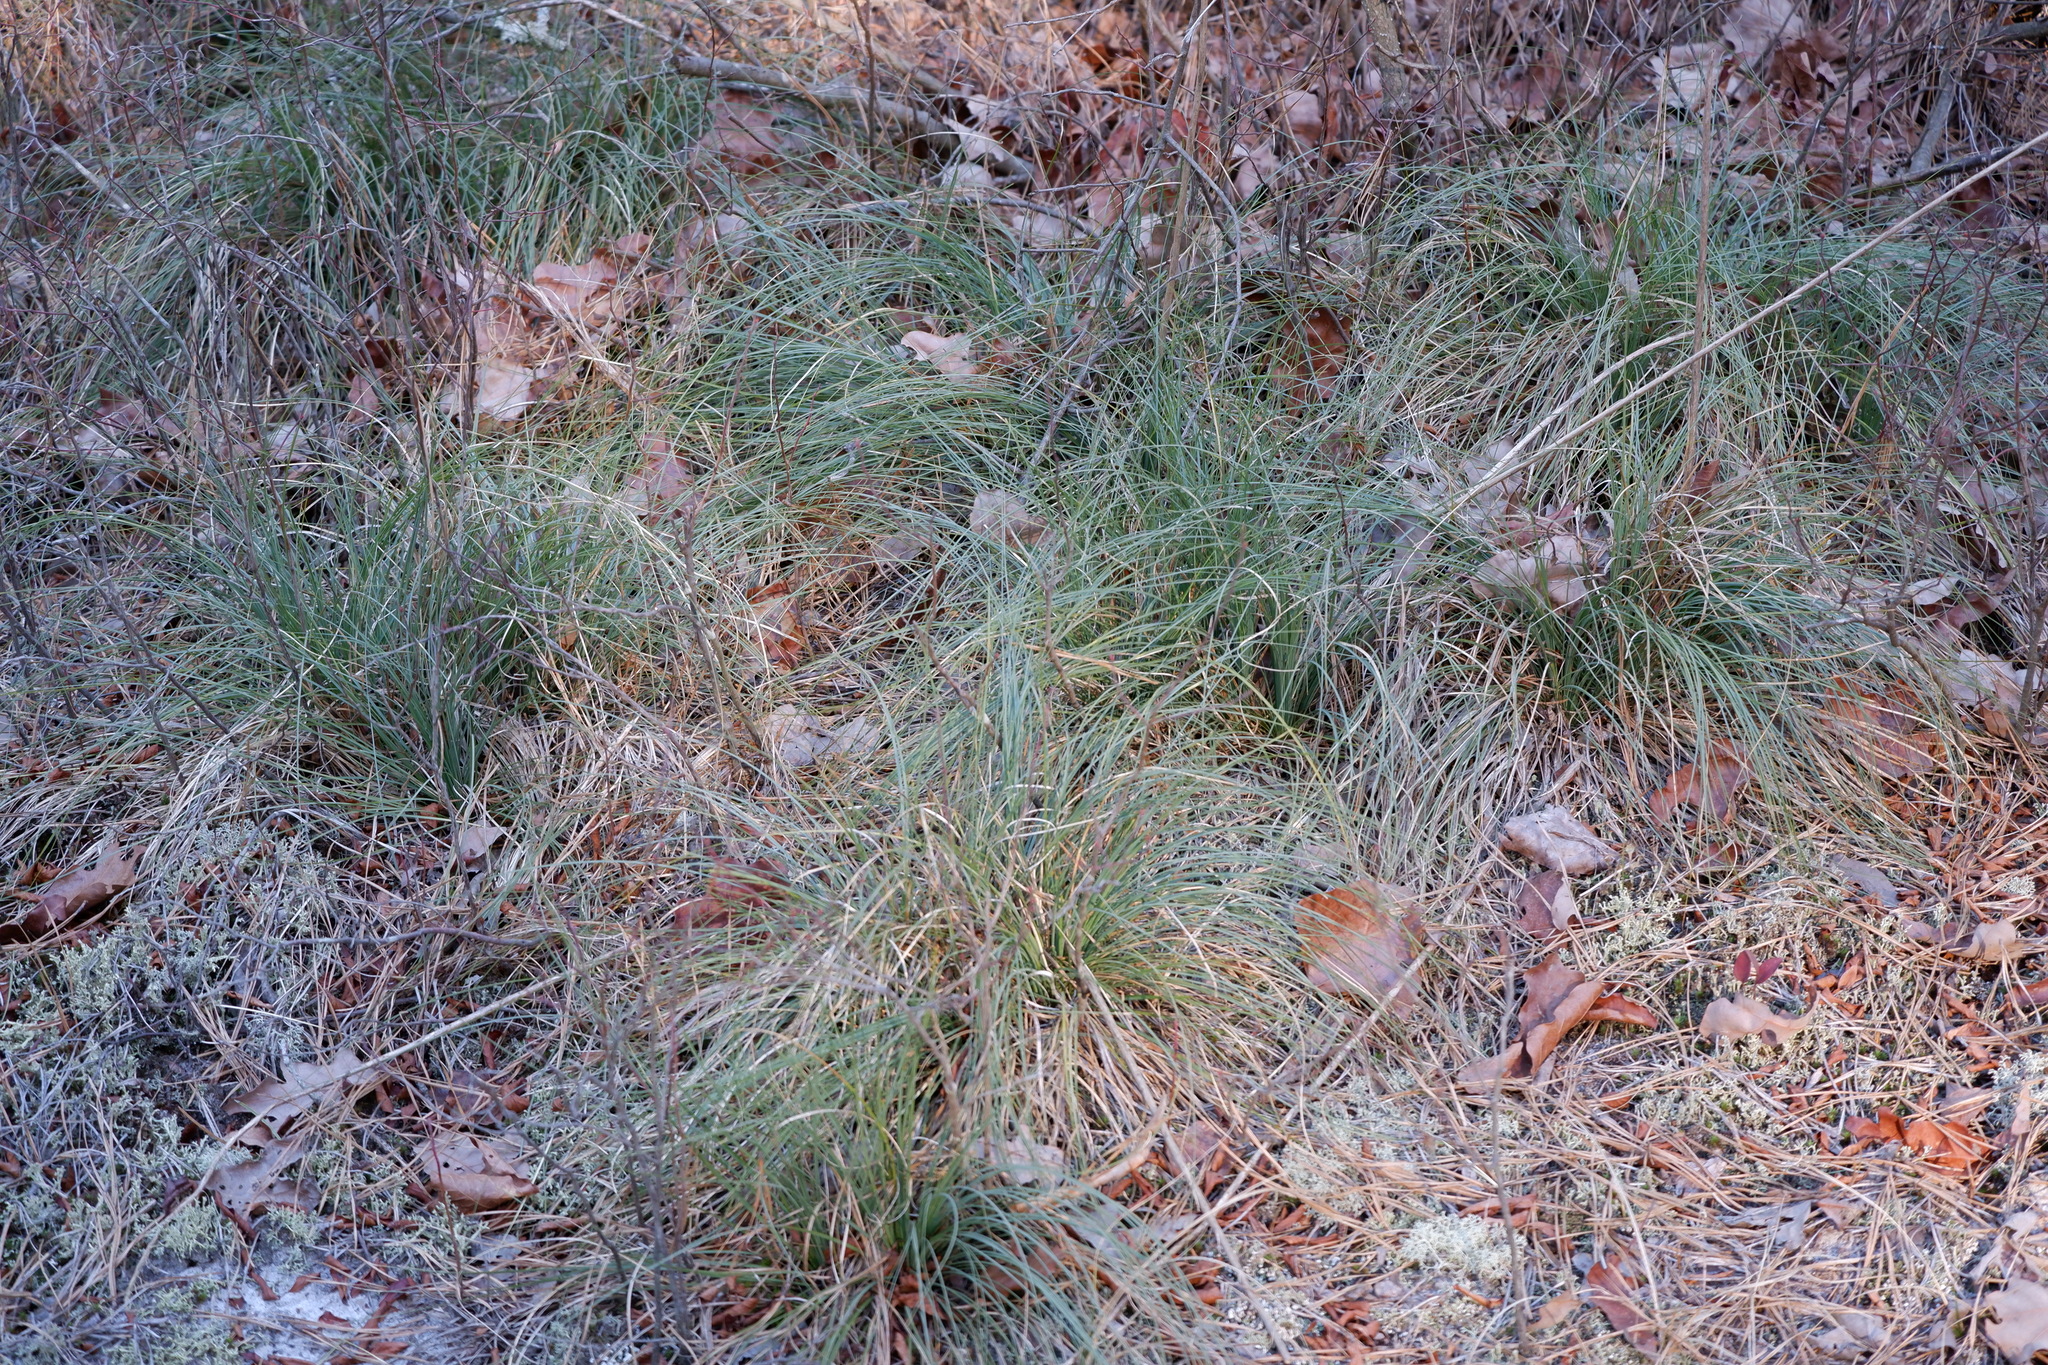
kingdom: Plantae
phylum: Tracheophyta
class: Liliopsida
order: Liliales
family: Melanthiaceae
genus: Xerophyllum
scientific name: Xerophyllum asphodeloides
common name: Mountain-asphodel
